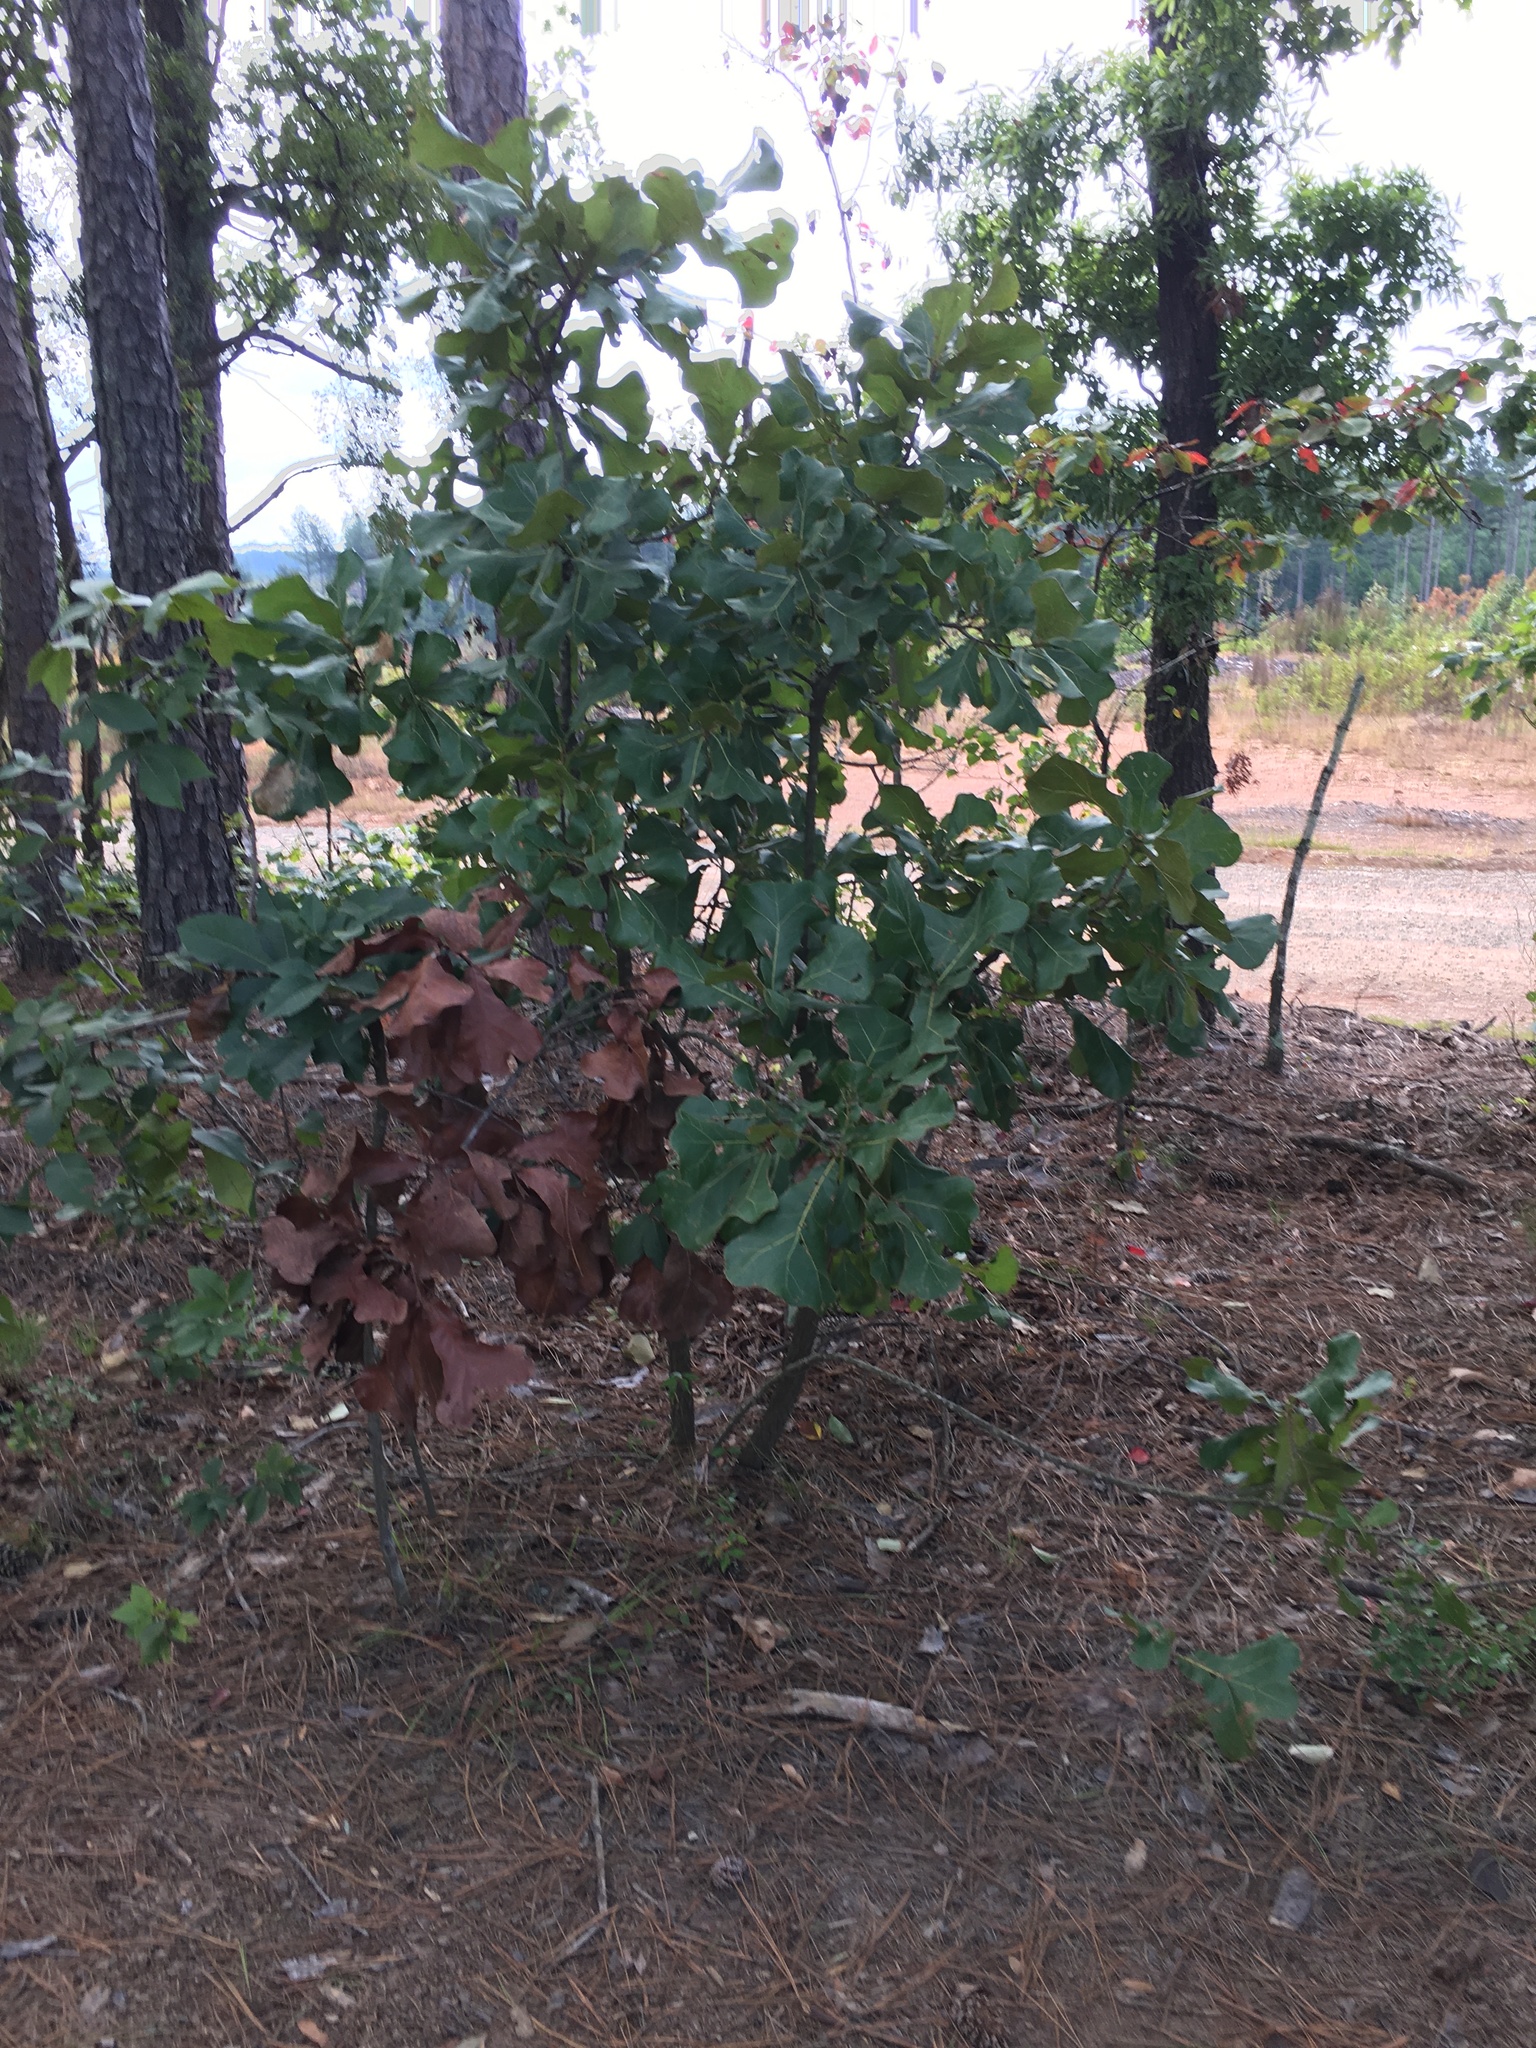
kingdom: Plantae
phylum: Tracheophyta
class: Magnoliopsida
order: Fagales
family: Fagaceae
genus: Quercus
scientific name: Quercus marilandica
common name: Blackjack oak
